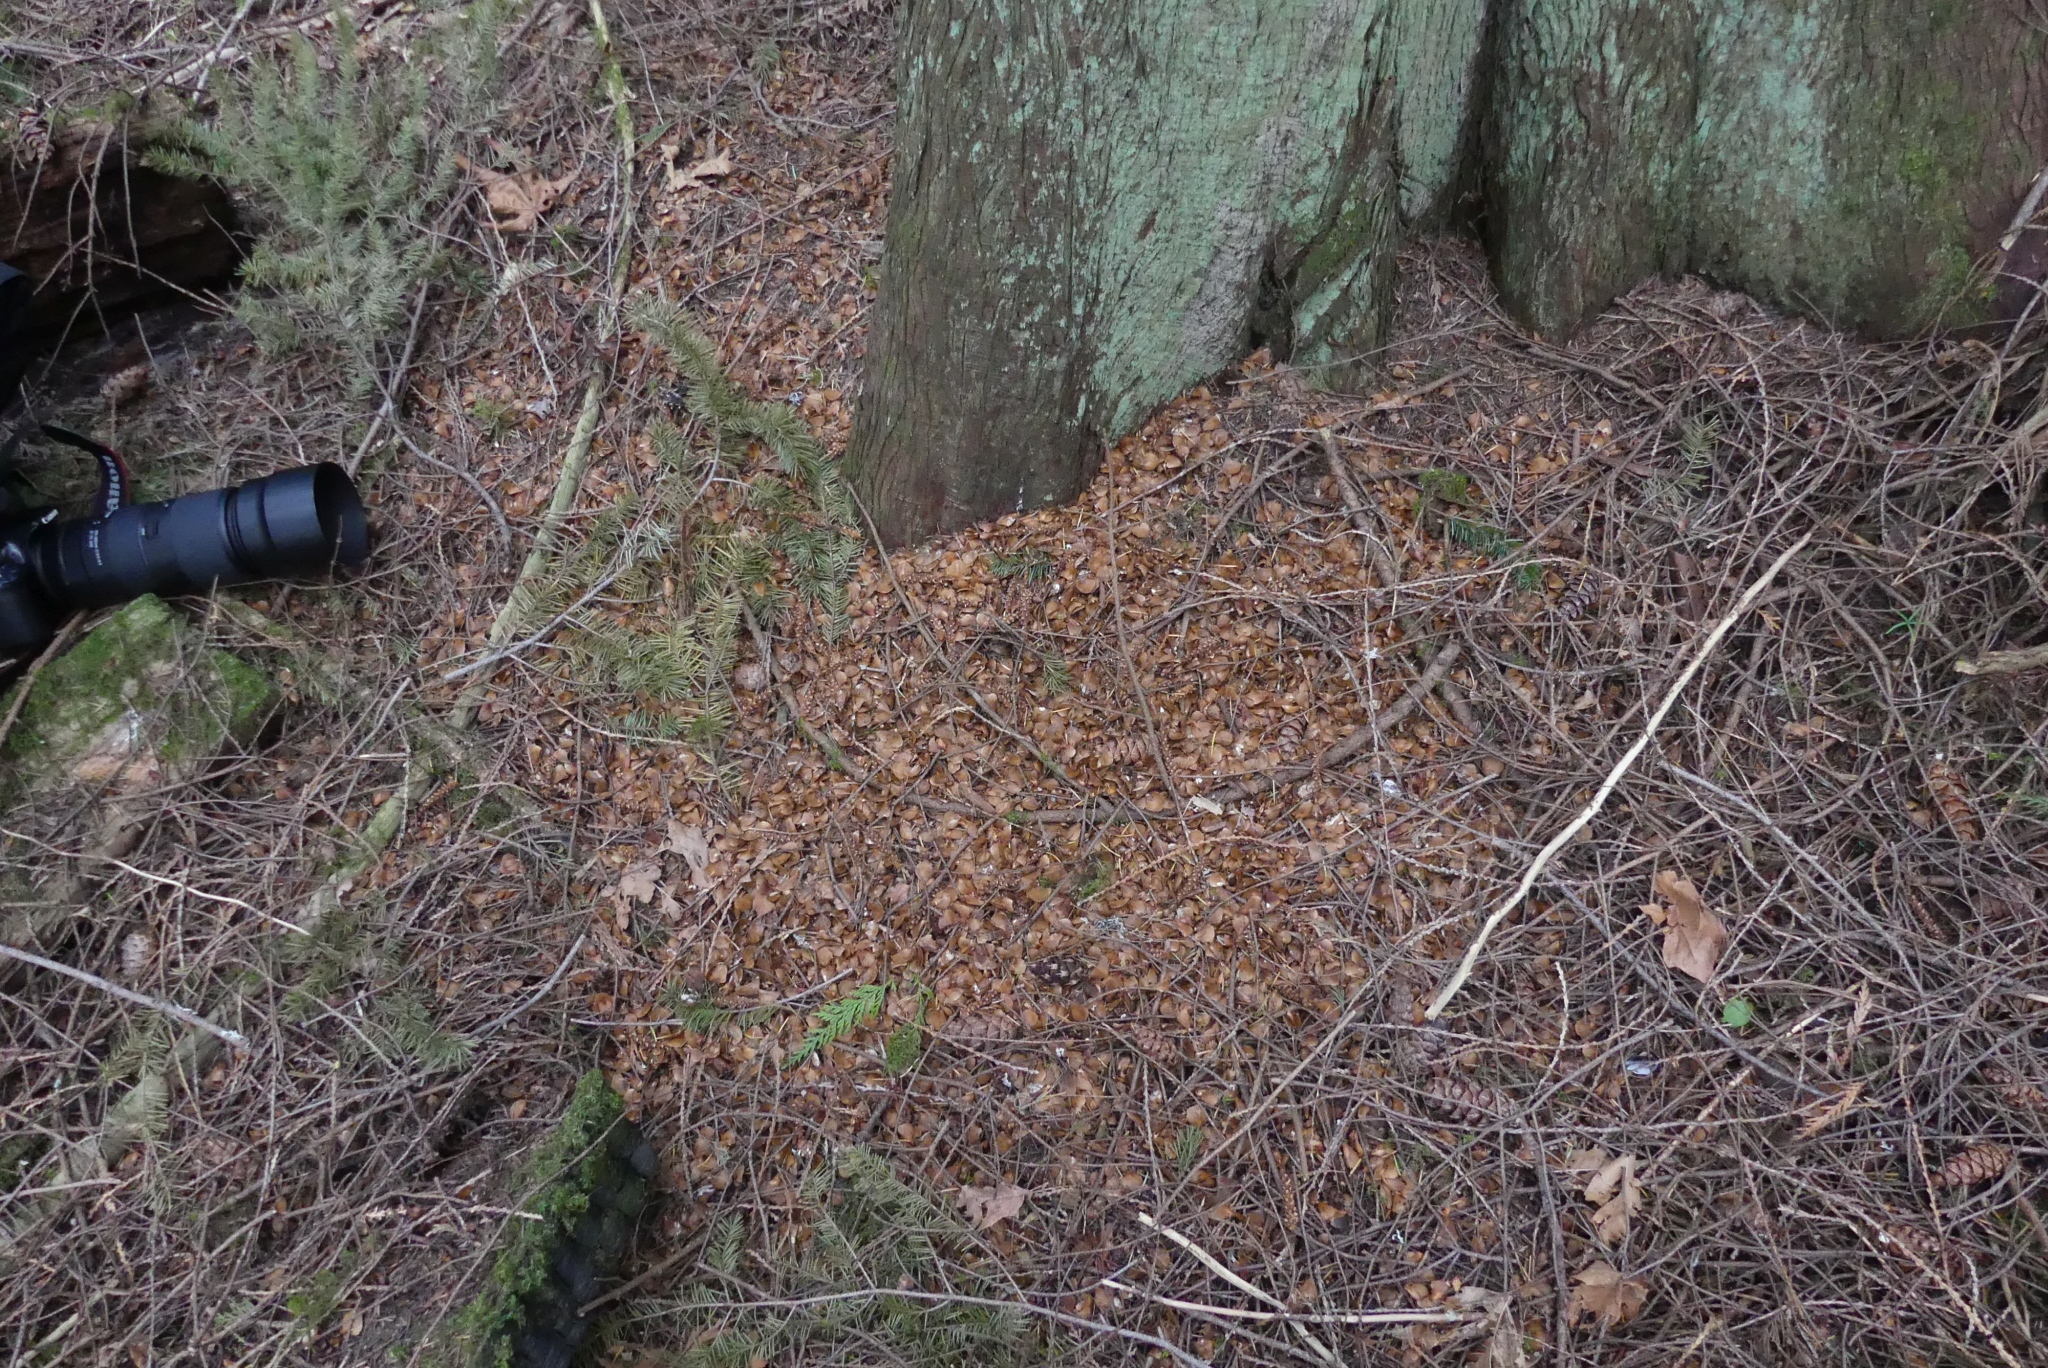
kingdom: Animalia
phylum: Chordata
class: Mammalia
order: Rodentia
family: Sciuridae
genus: Tamiasciurus
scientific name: Tamiasciurus hudsonicus
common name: Red squirrel
